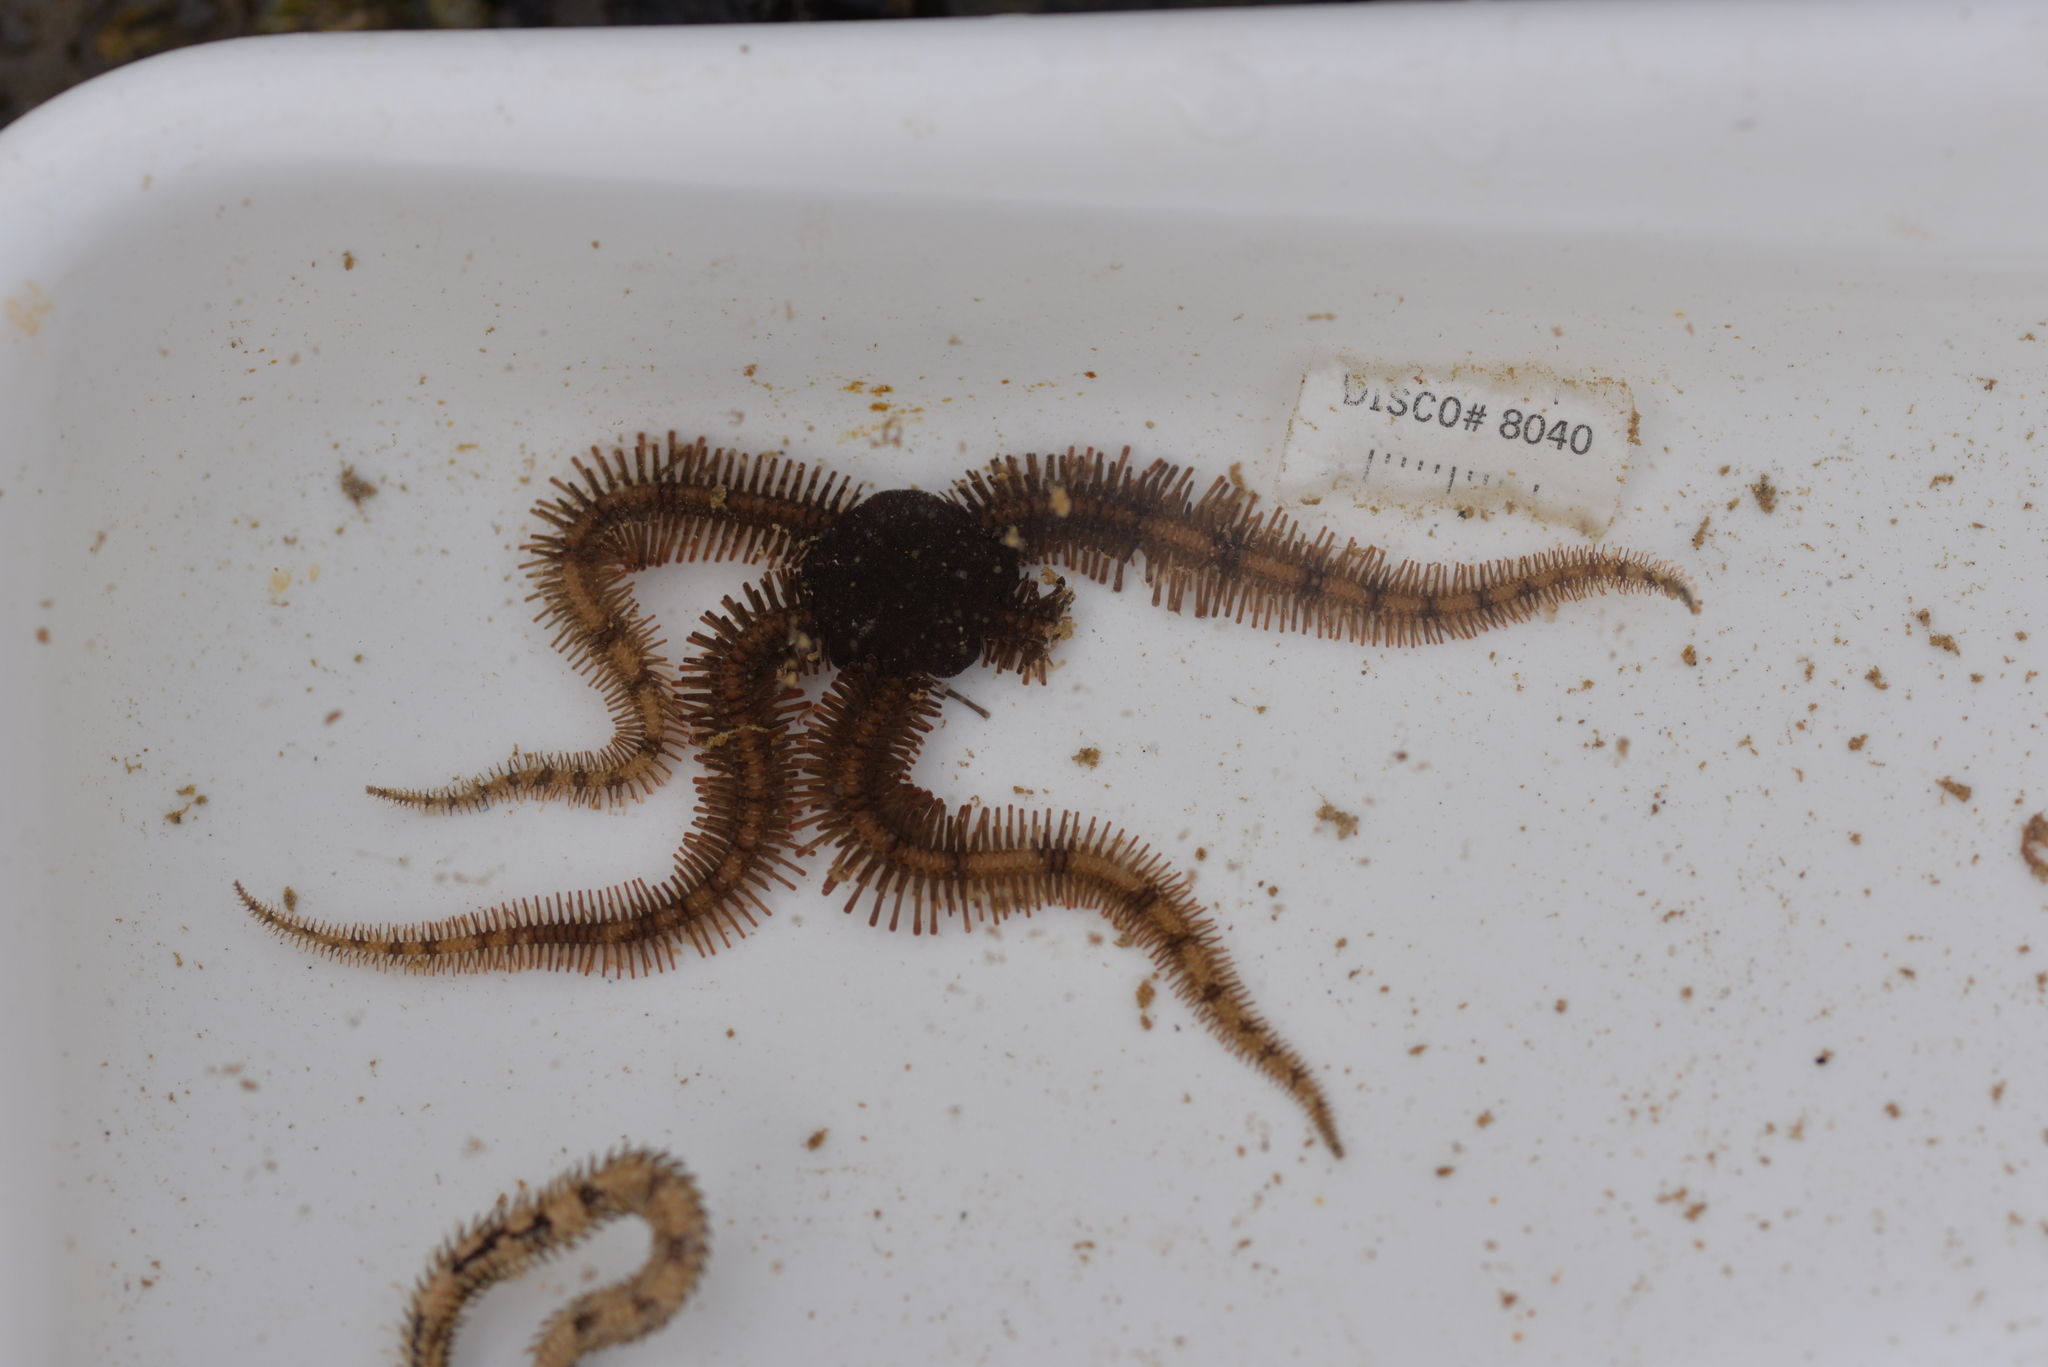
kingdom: Animalia
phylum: Echinodermata
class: Ophiuroidea
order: Ophiacanthida
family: Ophiopteridae
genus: Ophiopteris
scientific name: Ophiopteris papillosa
